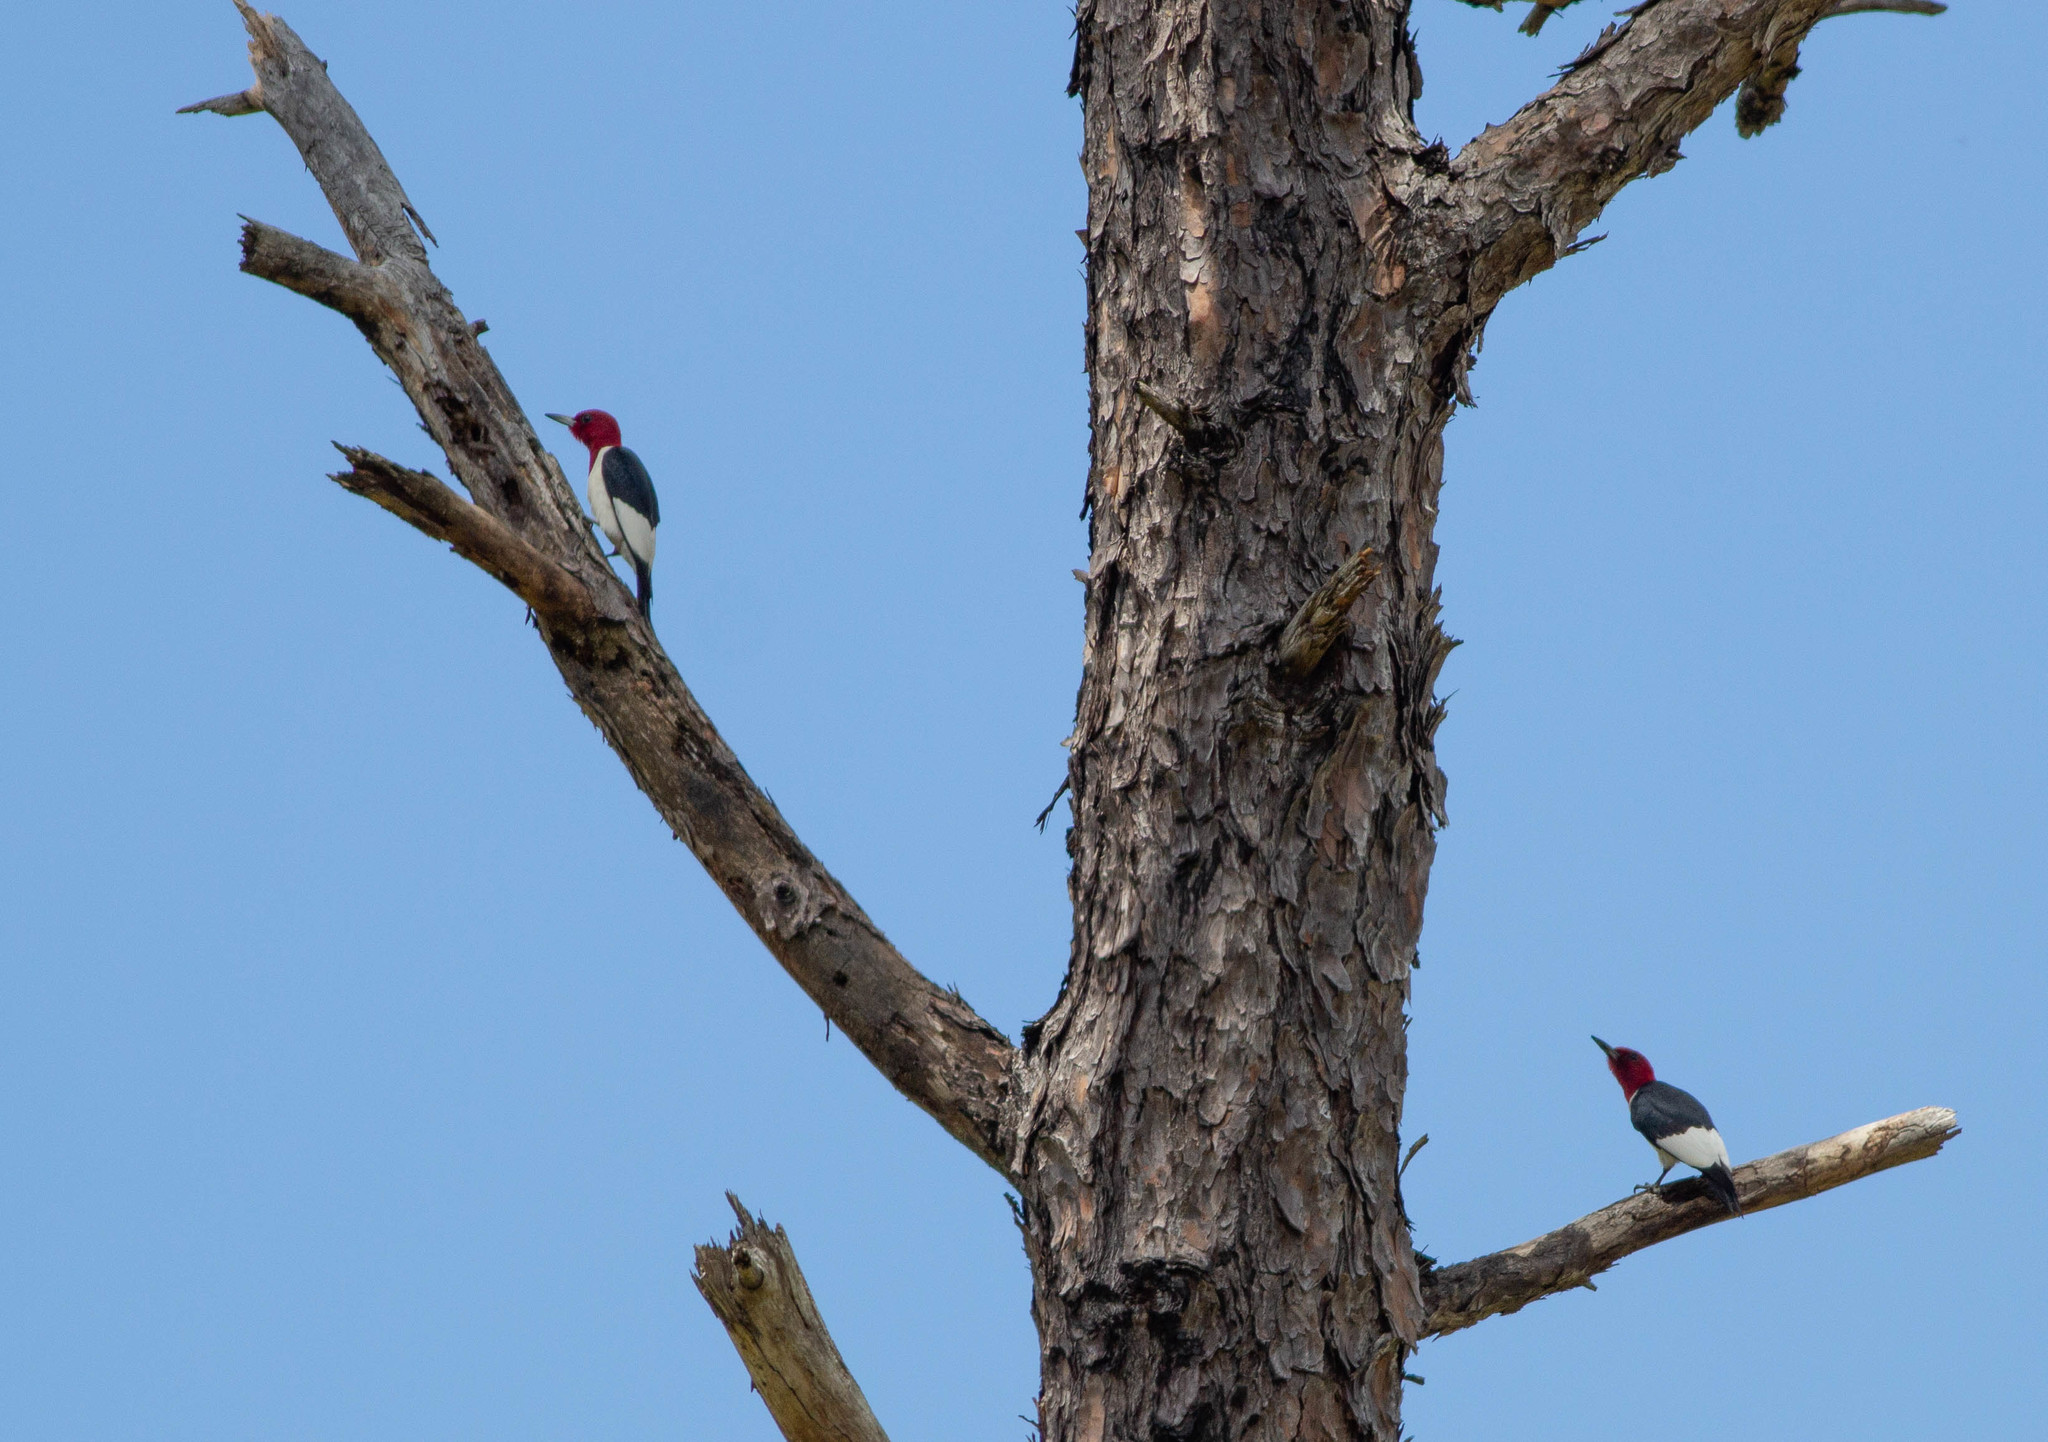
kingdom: Animalia
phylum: Chordata
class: Aves
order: Piciformes
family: Picidae
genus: Melanerpes
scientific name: Melanerpes erythrocephalus
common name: Red-headed woodpecker
